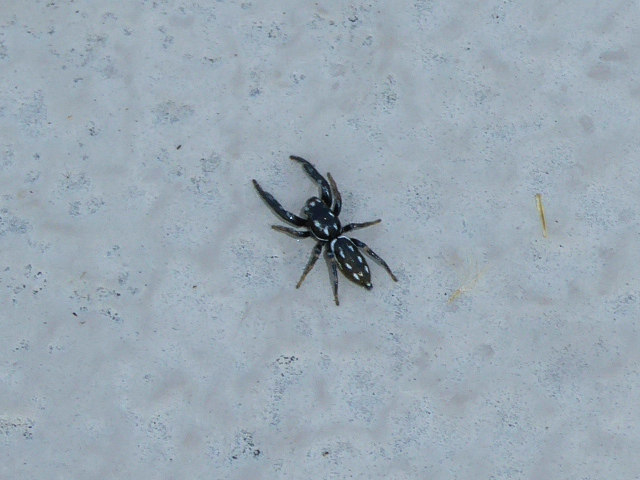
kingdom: Animalia
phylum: Arthropoda
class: Arachnida
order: Araneae
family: Salticidae
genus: Marpissa
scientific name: Marpissa formosa
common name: Short-bellied slender jumping spider
